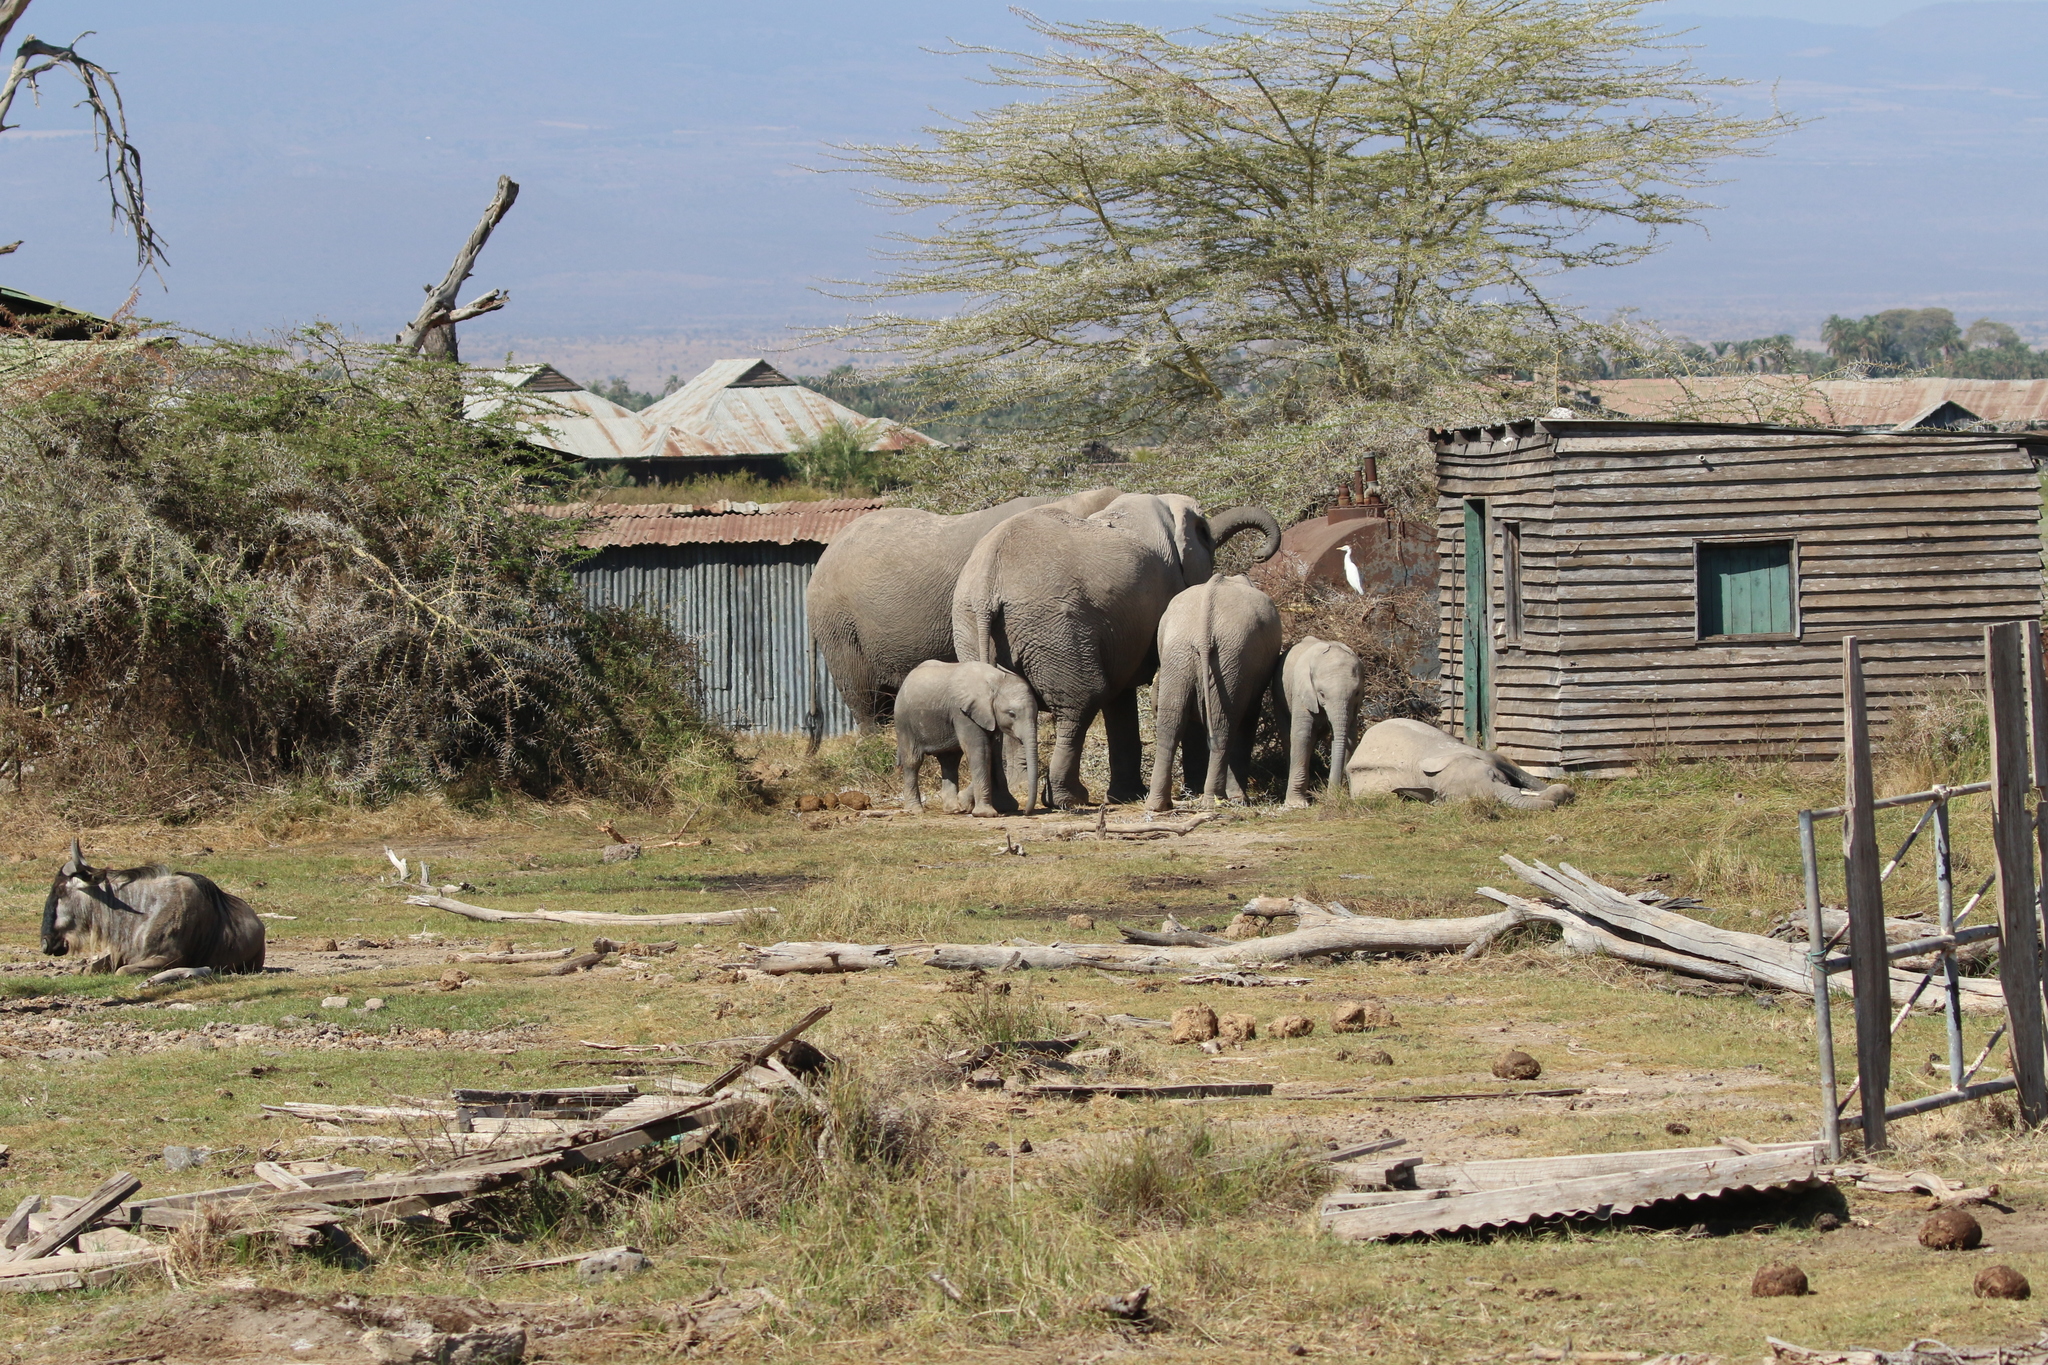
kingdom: Animalia
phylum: Chordata
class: Mammalia
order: Proboscidea
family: Elephantidae
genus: Loxodonta
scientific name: Loxodonta africana
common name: African elephant
